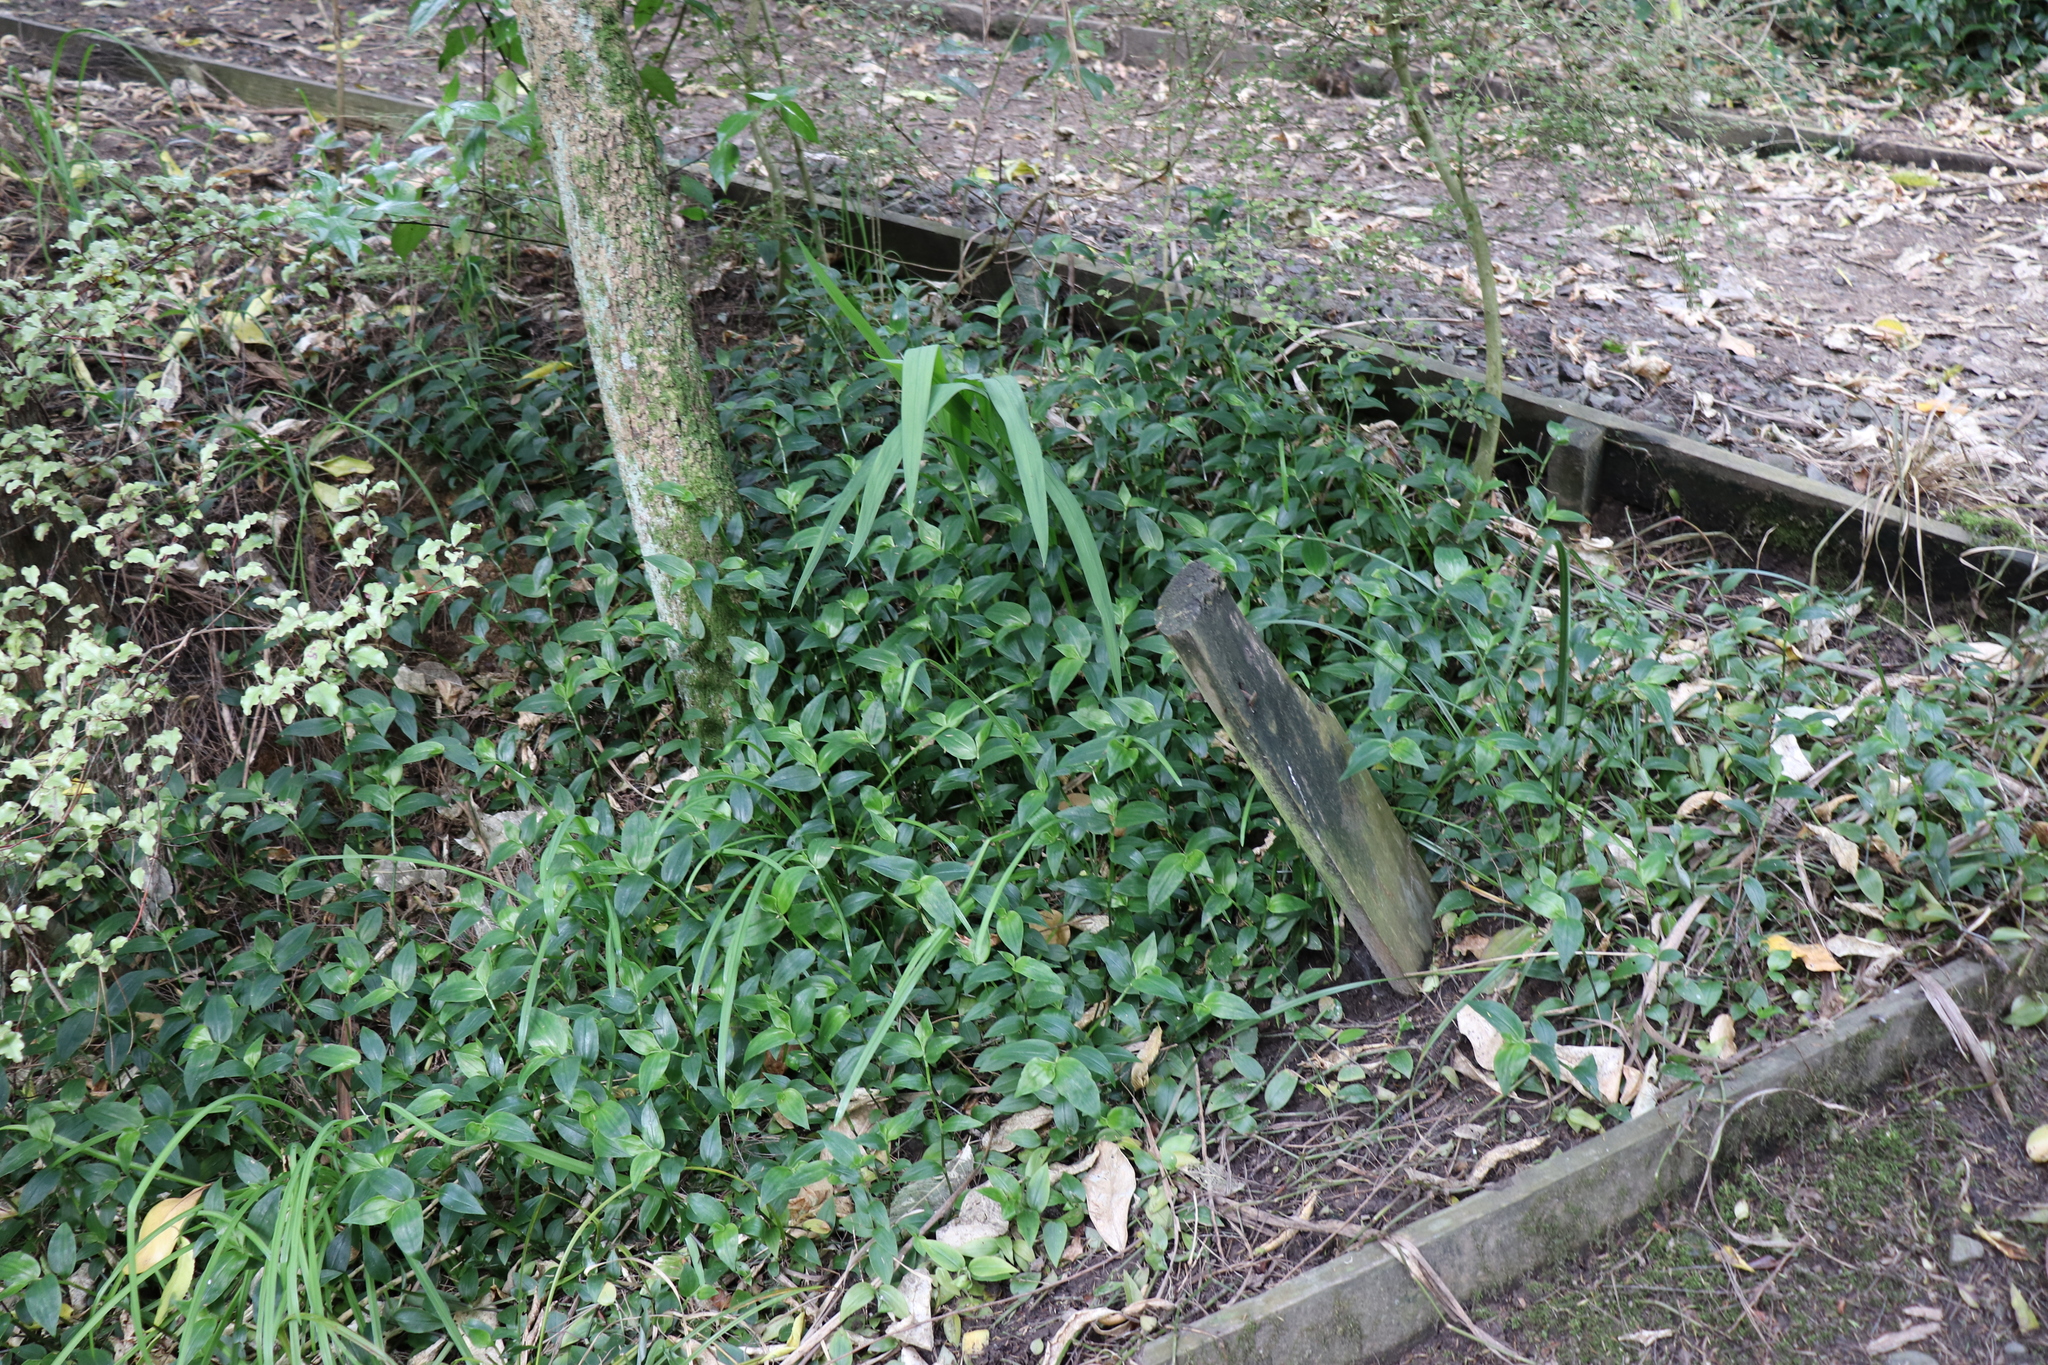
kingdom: Plantae
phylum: Tracheophyta
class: Liliopsida
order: Commelinales
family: Commelinaceae
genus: Tradescantia
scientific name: Tradescantia fluminensis
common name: Wandering-jew
